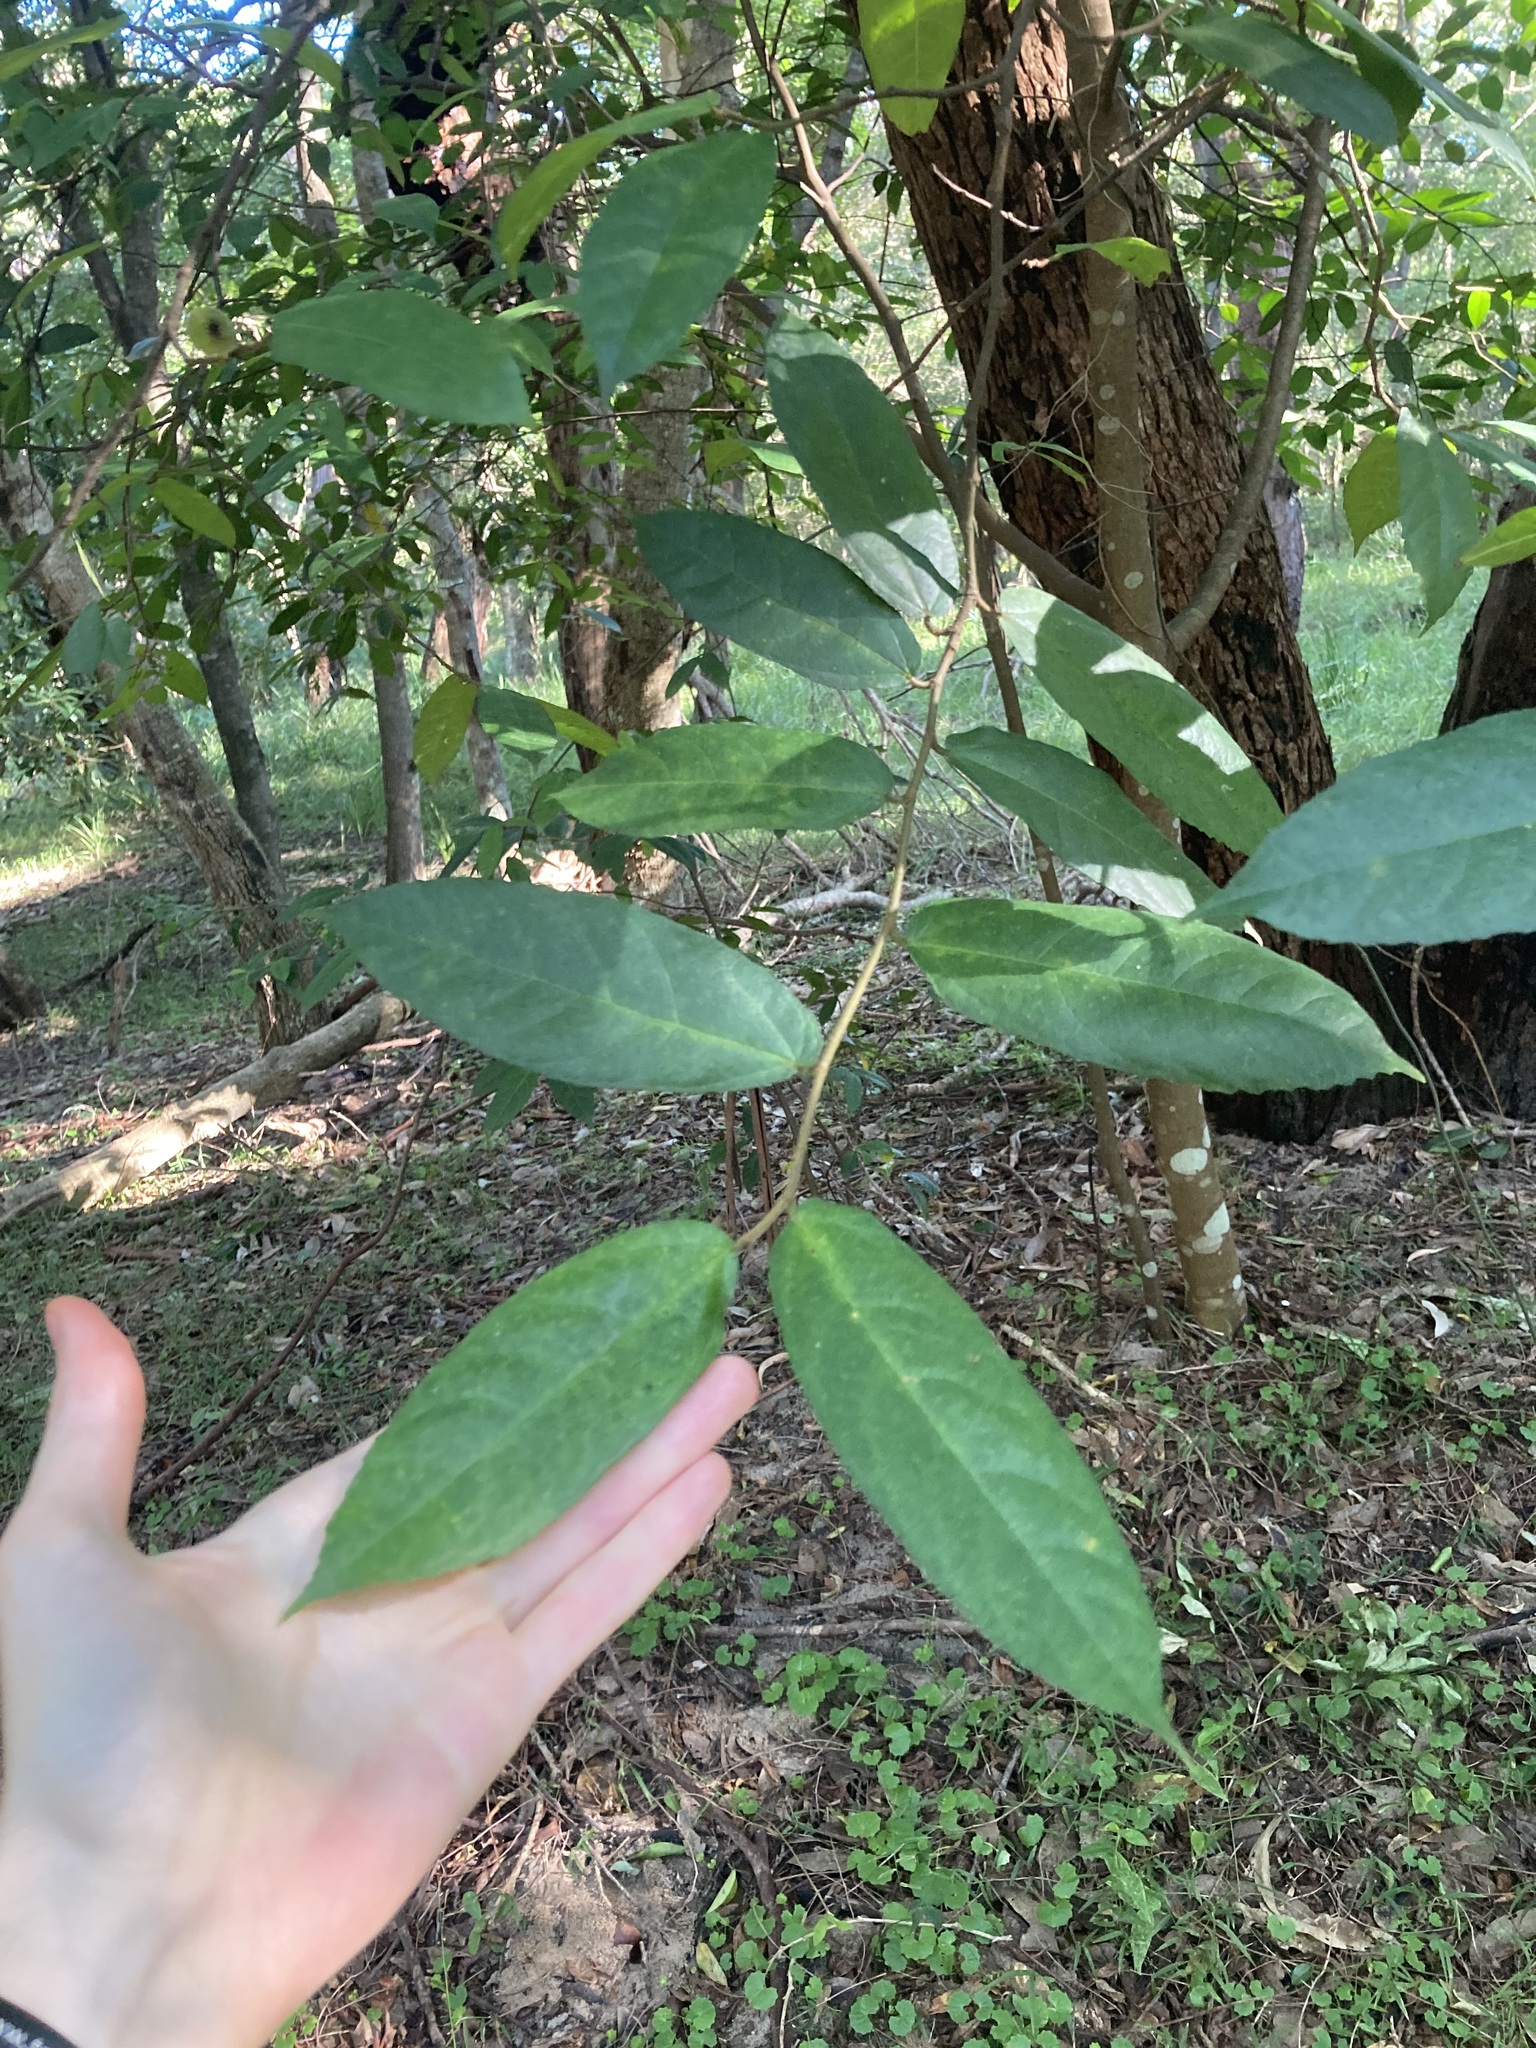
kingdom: Plantae
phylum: Tracheophyta
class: Magnoliopsida
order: Rosales
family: Moraceae
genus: Ficus
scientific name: Ficus coronata
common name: Creek sandpaper fig
